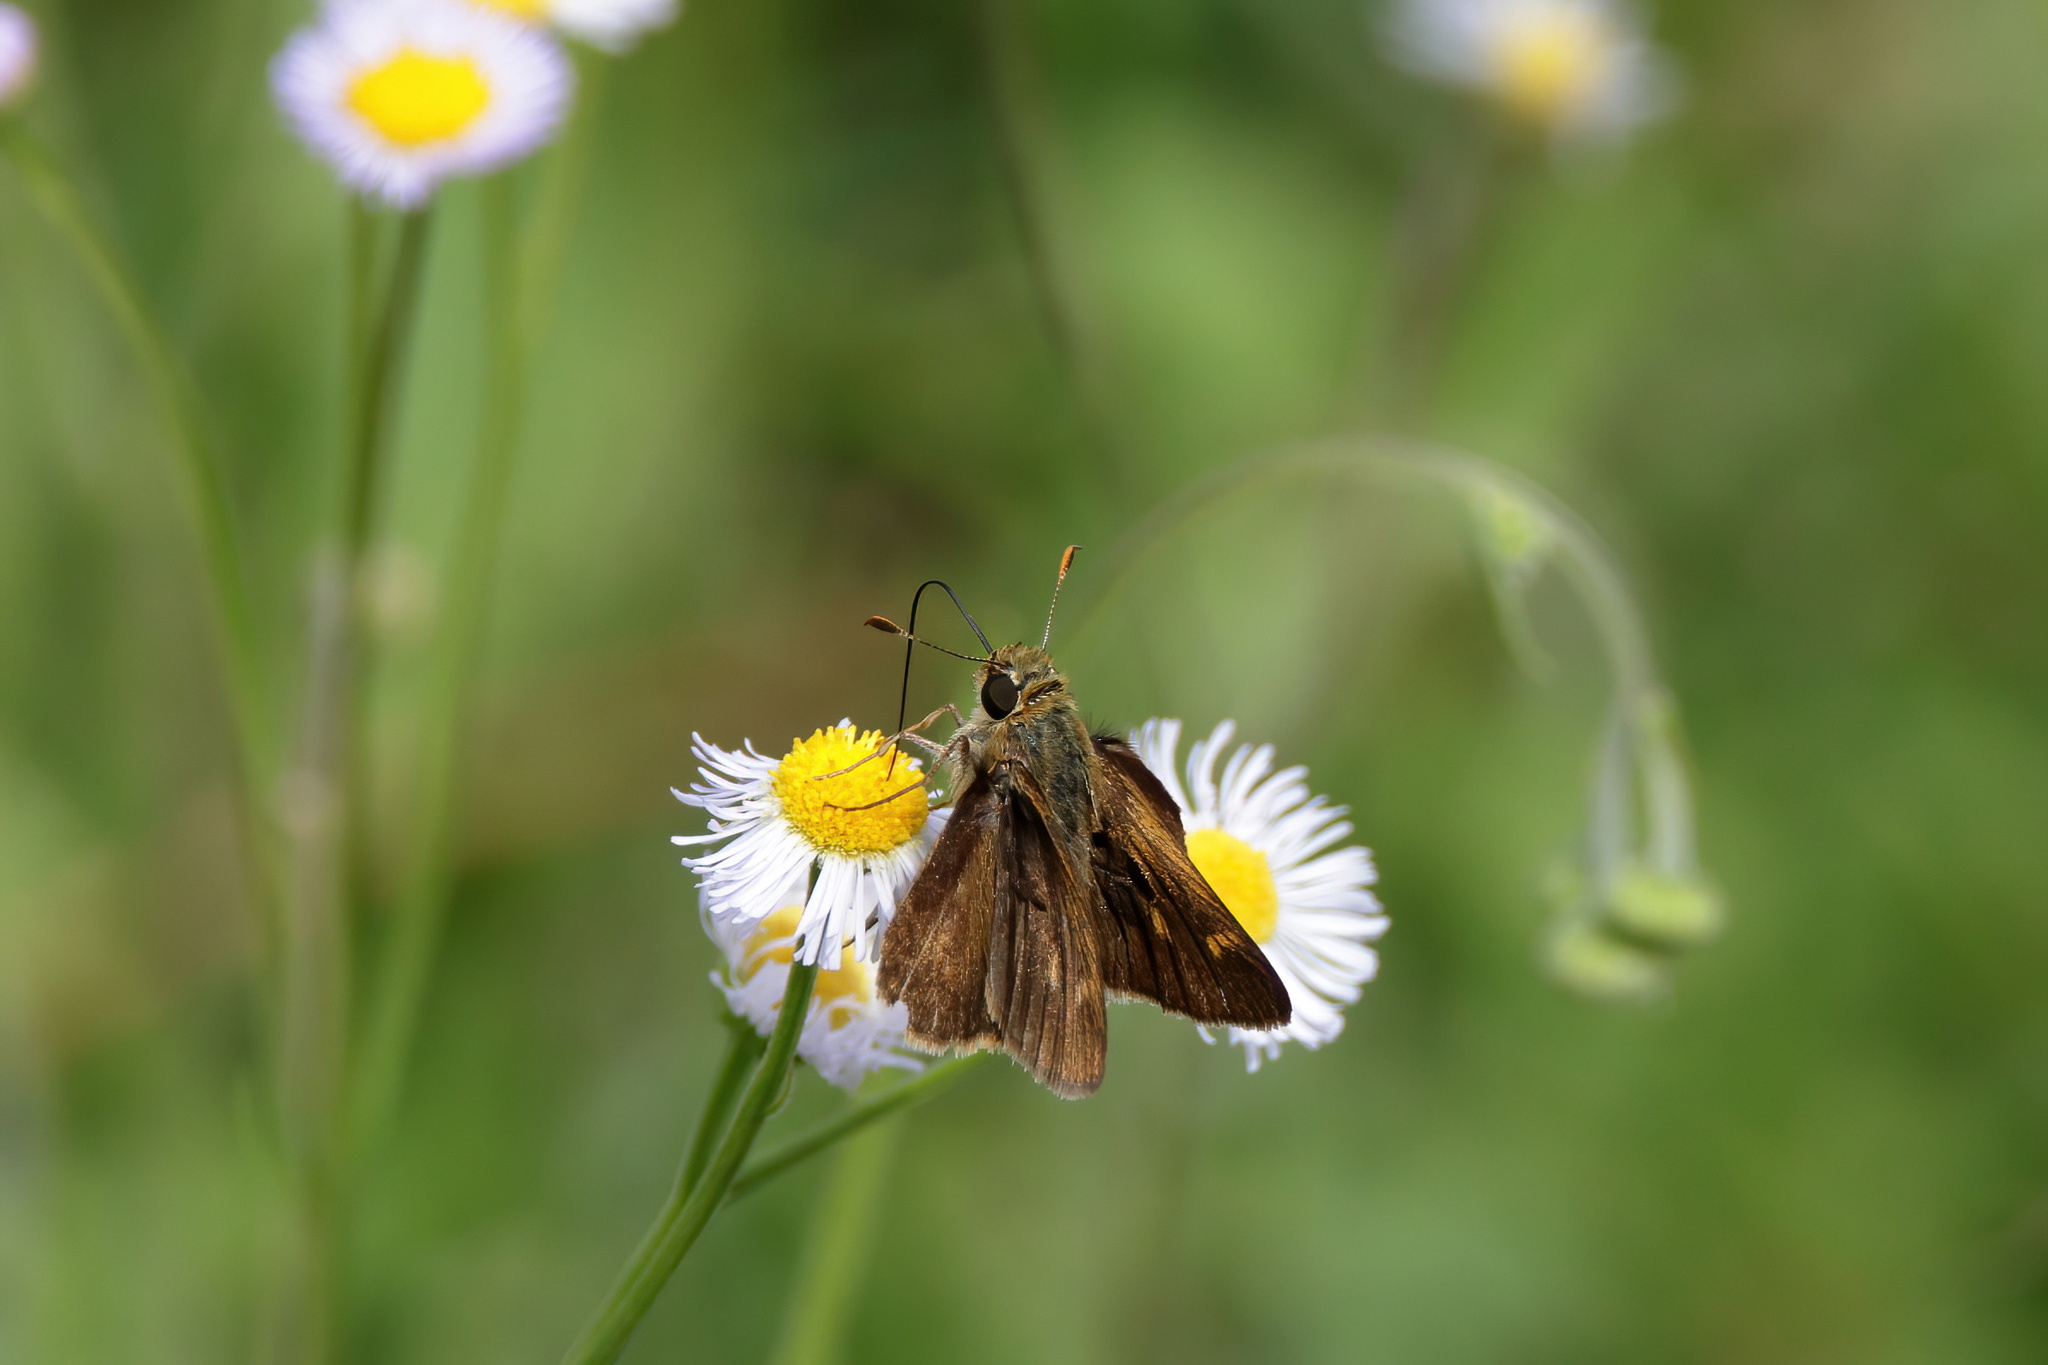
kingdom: Animalia
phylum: Arthropoda
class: Insecta
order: Lepidoptera
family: Hesperiidae
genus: Polites
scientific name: Polites otho
